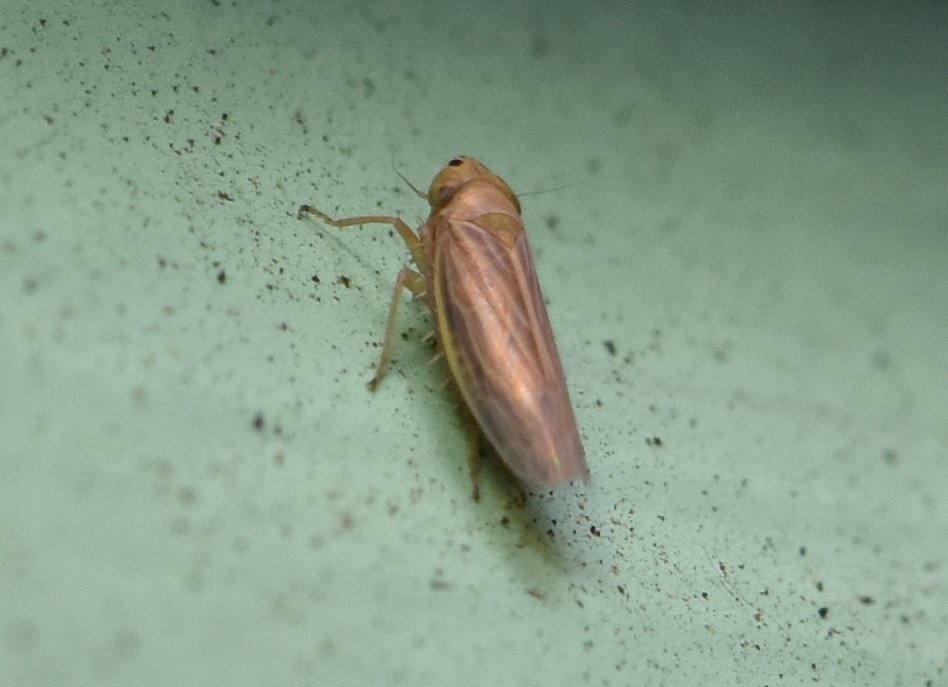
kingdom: Animalia
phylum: Arthropoda
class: Insecta
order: Hemiptera
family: Cicadellidae
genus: Graminella
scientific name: Graminella cognita
